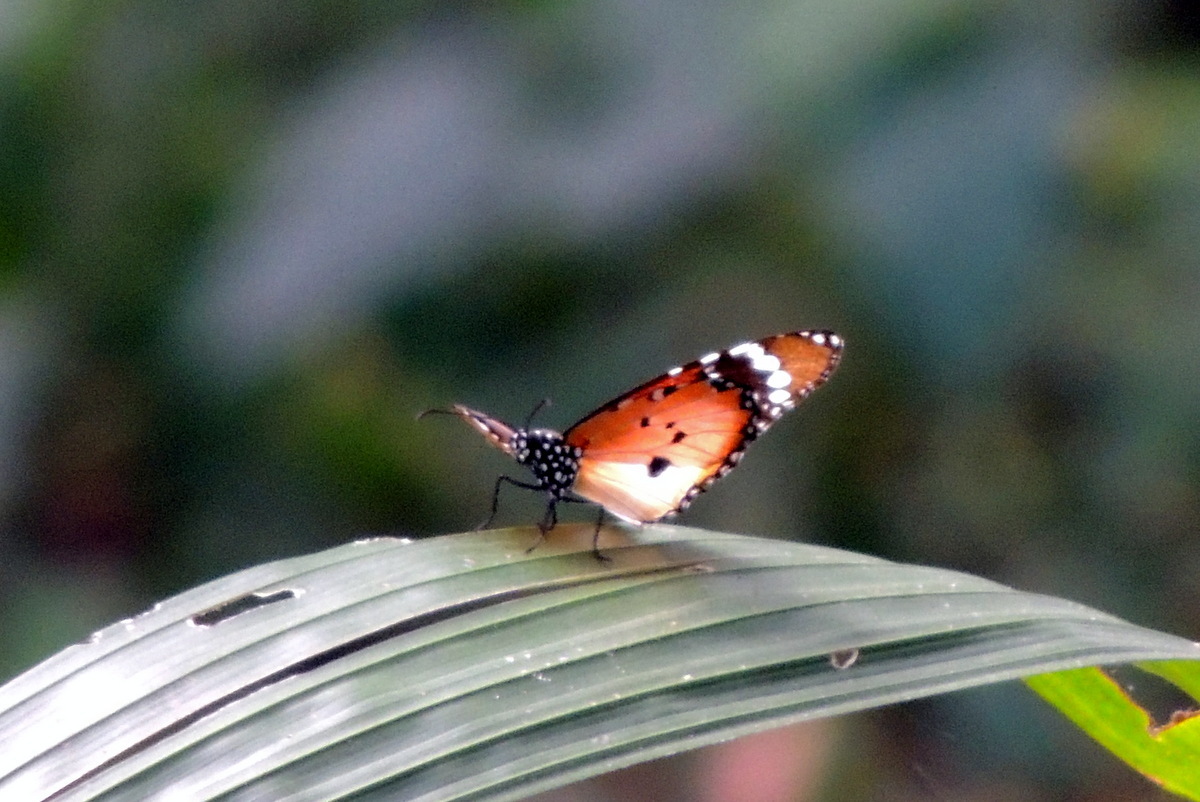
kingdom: Animalia
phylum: Arthropoda
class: Insecta
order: Lepidoptera
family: Nymphalidae
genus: Danaus
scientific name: Danaus chrysippus
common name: Plain tiger
